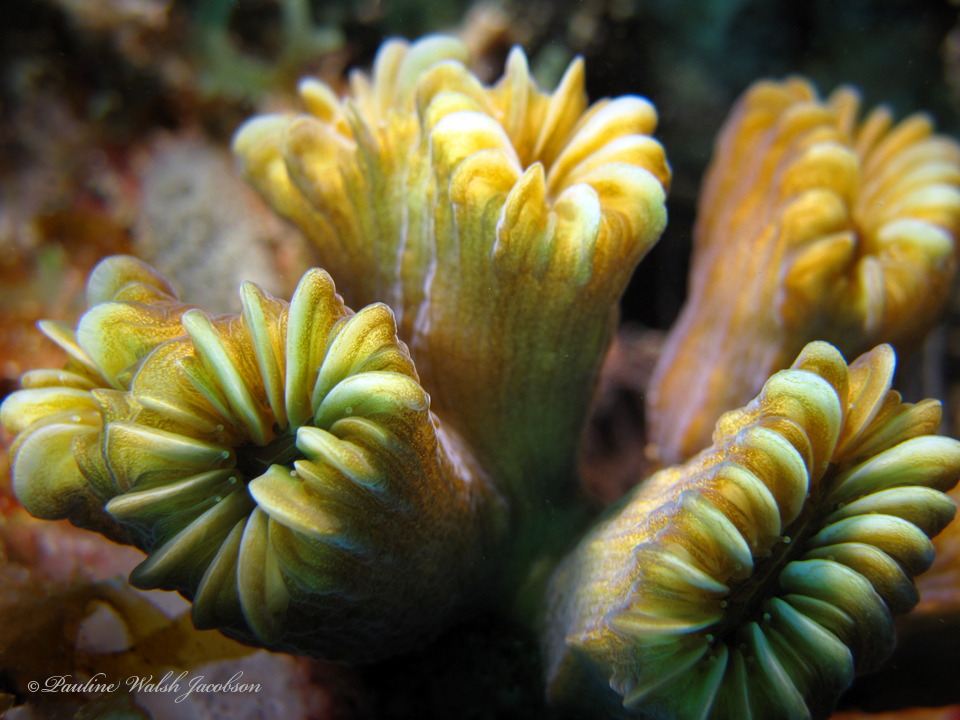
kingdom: Animalia
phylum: Cnidaria
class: Anthozoa
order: Scleractinia
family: Meandrinidae
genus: Eusmilia
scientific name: Eusmilia fastigiata
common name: Smooth flower coral
